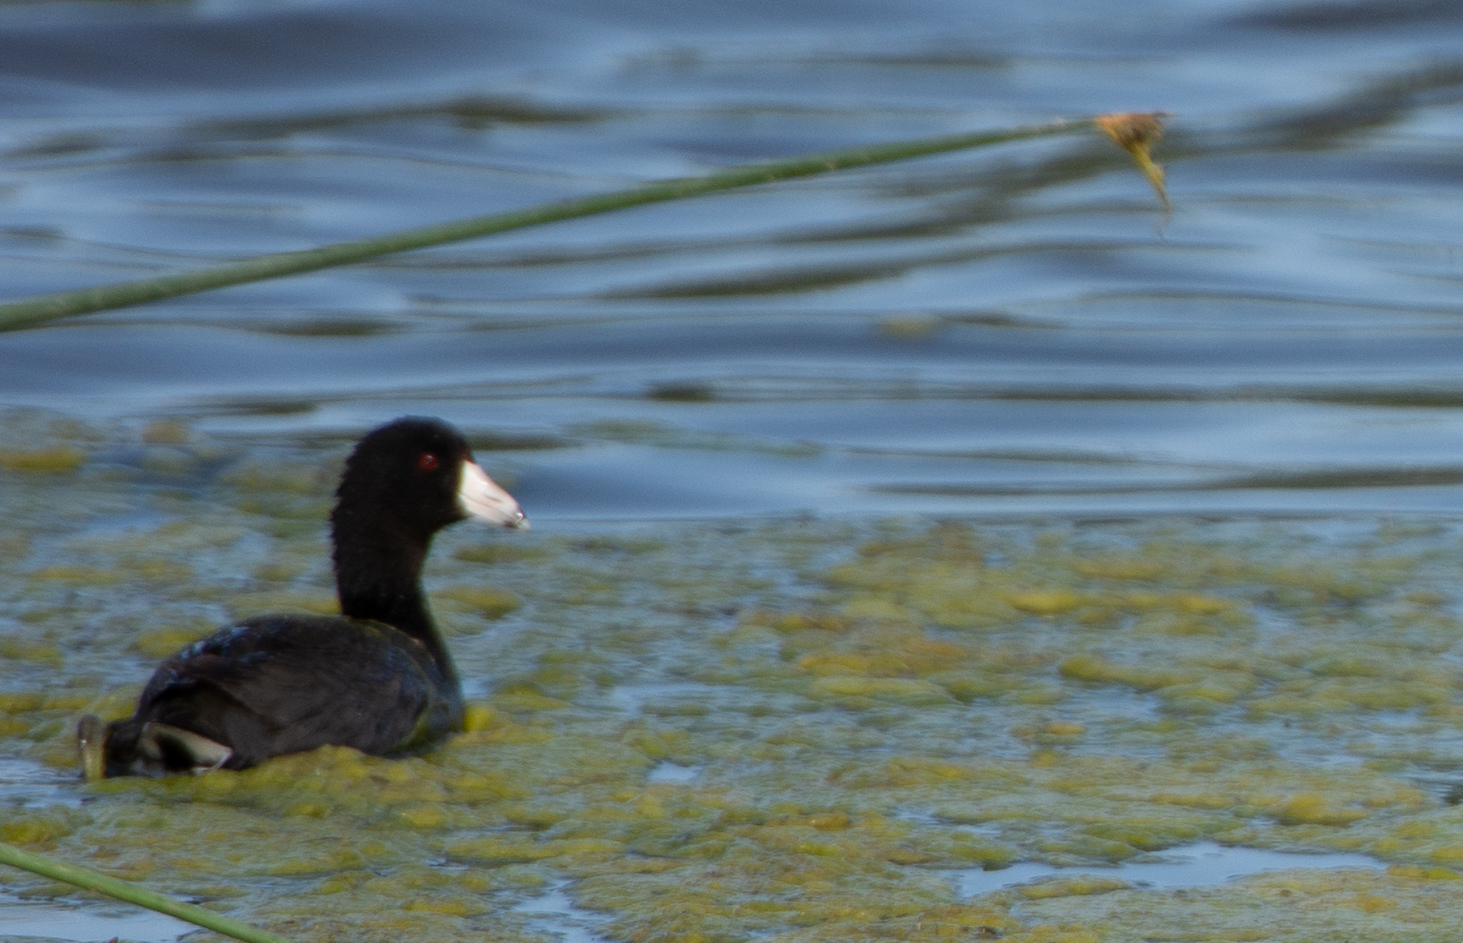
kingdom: Animalia
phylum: Chordata
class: Aves
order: Gruiformes
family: Rallidae
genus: Fulica
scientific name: Fulica americana
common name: American coot
